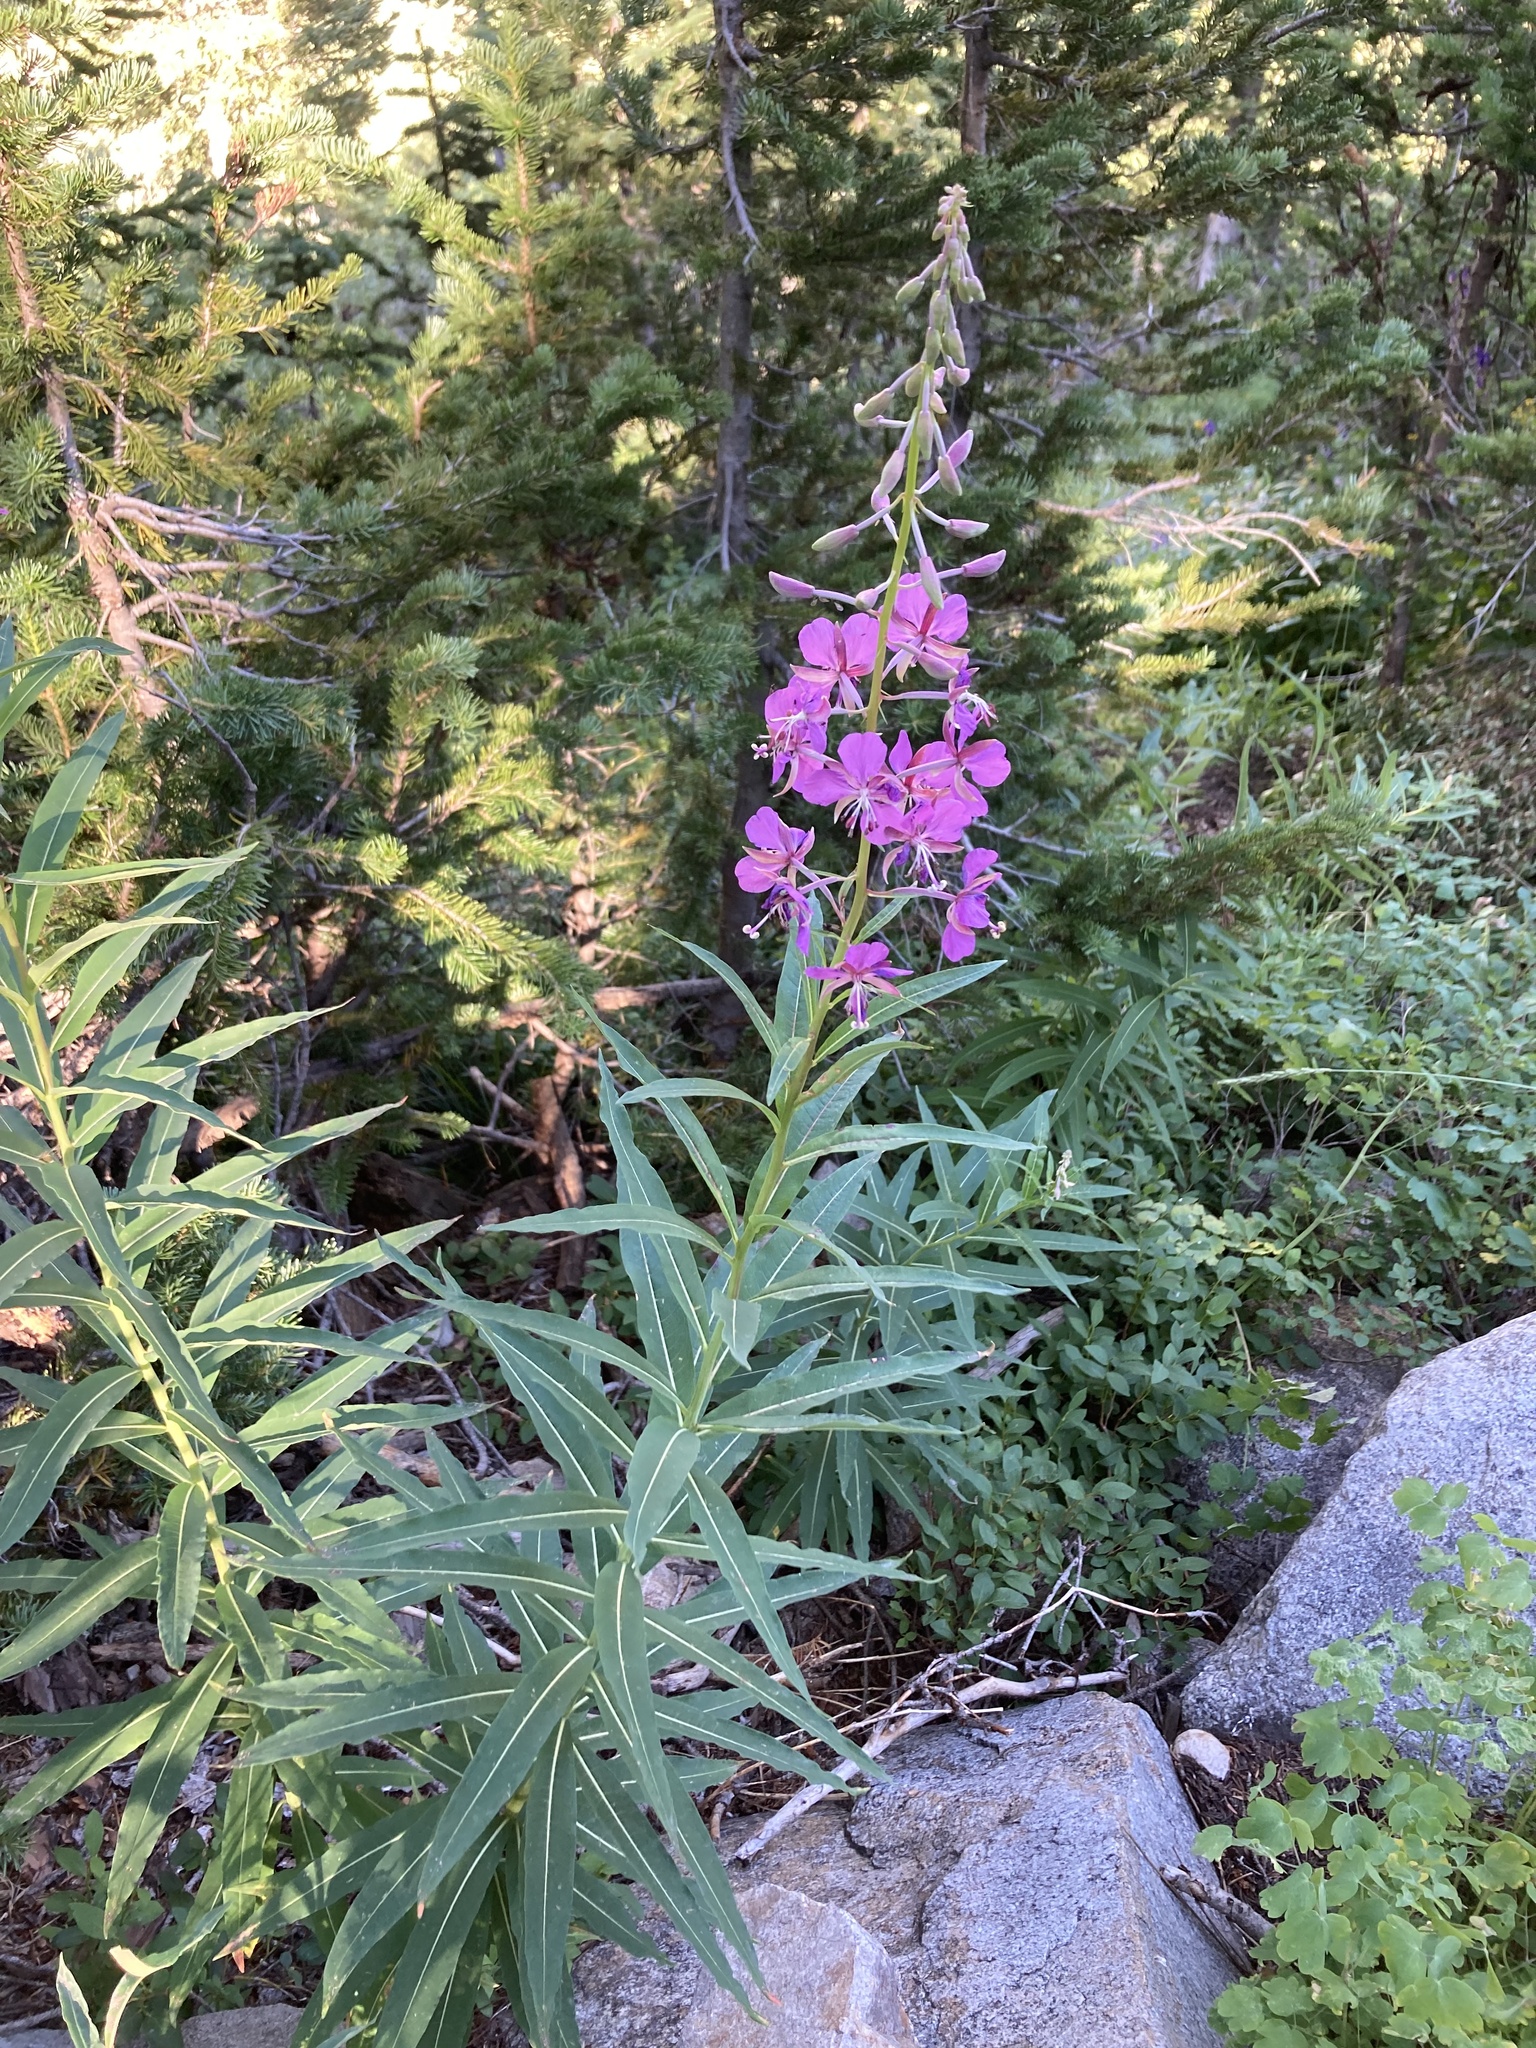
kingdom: Plantae
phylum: Tracheophyta
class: Magnoliopsida
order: Myrtales
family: Onagraceae
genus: Chamaenerion
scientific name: Chamaenerion angustifolium
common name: Fireweed
